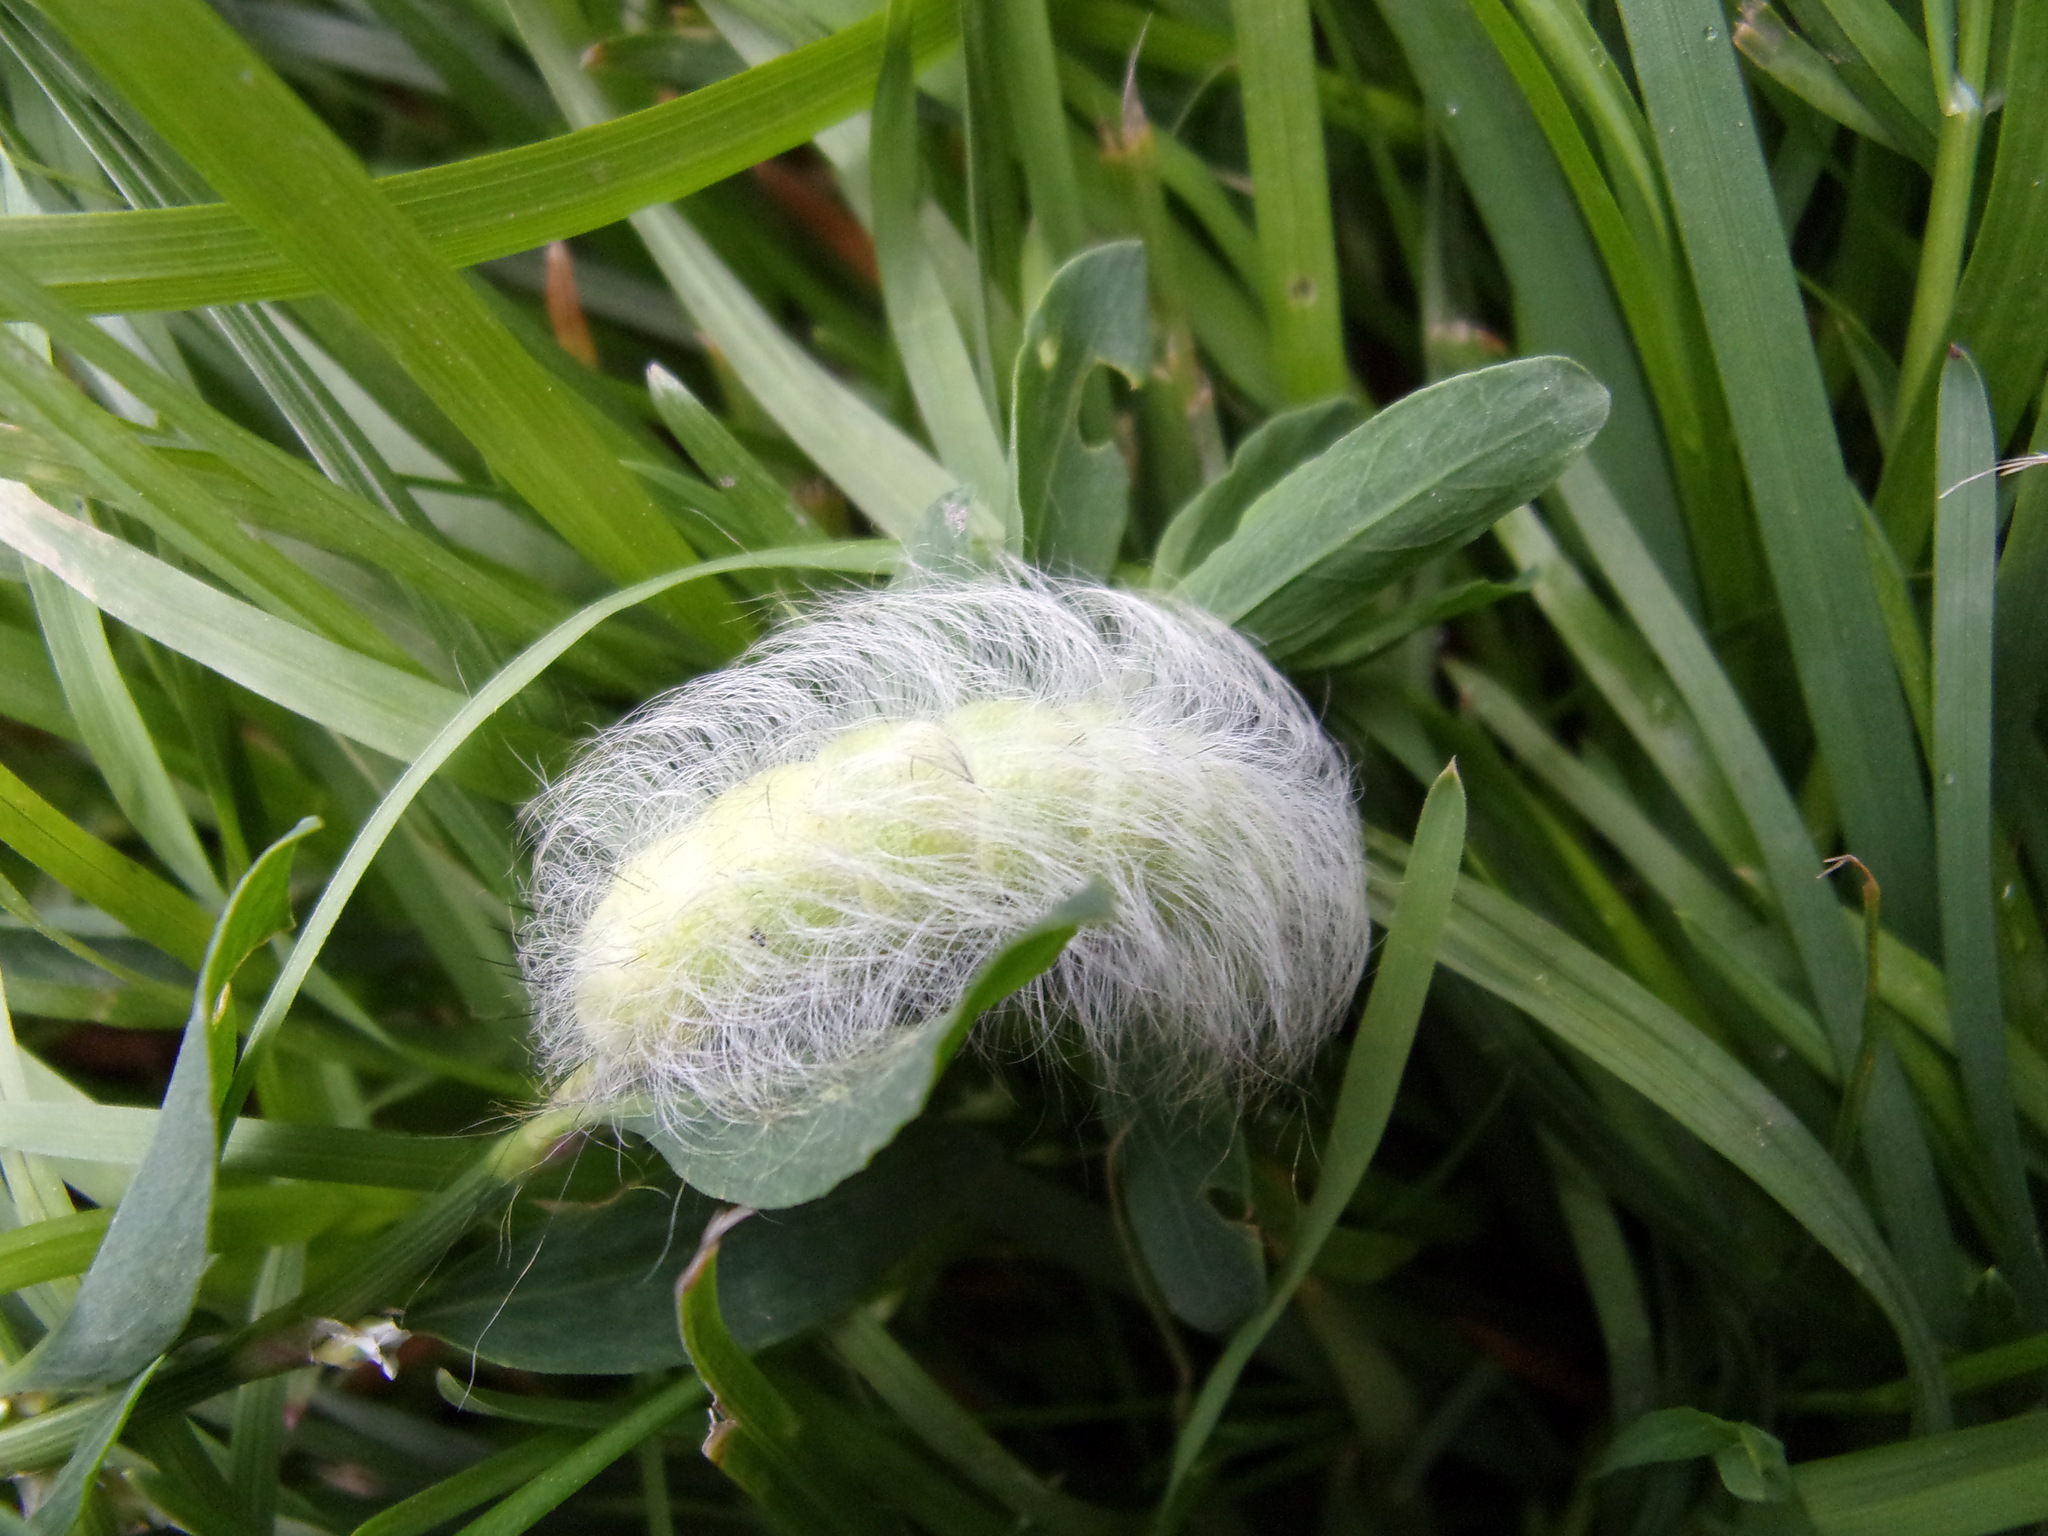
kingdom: Animalia
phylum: Arthropoda
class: Insecta
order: Lepidoptera
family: Noctuidae
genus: Acronicta
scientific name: Acronicta leporina
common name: Miller
